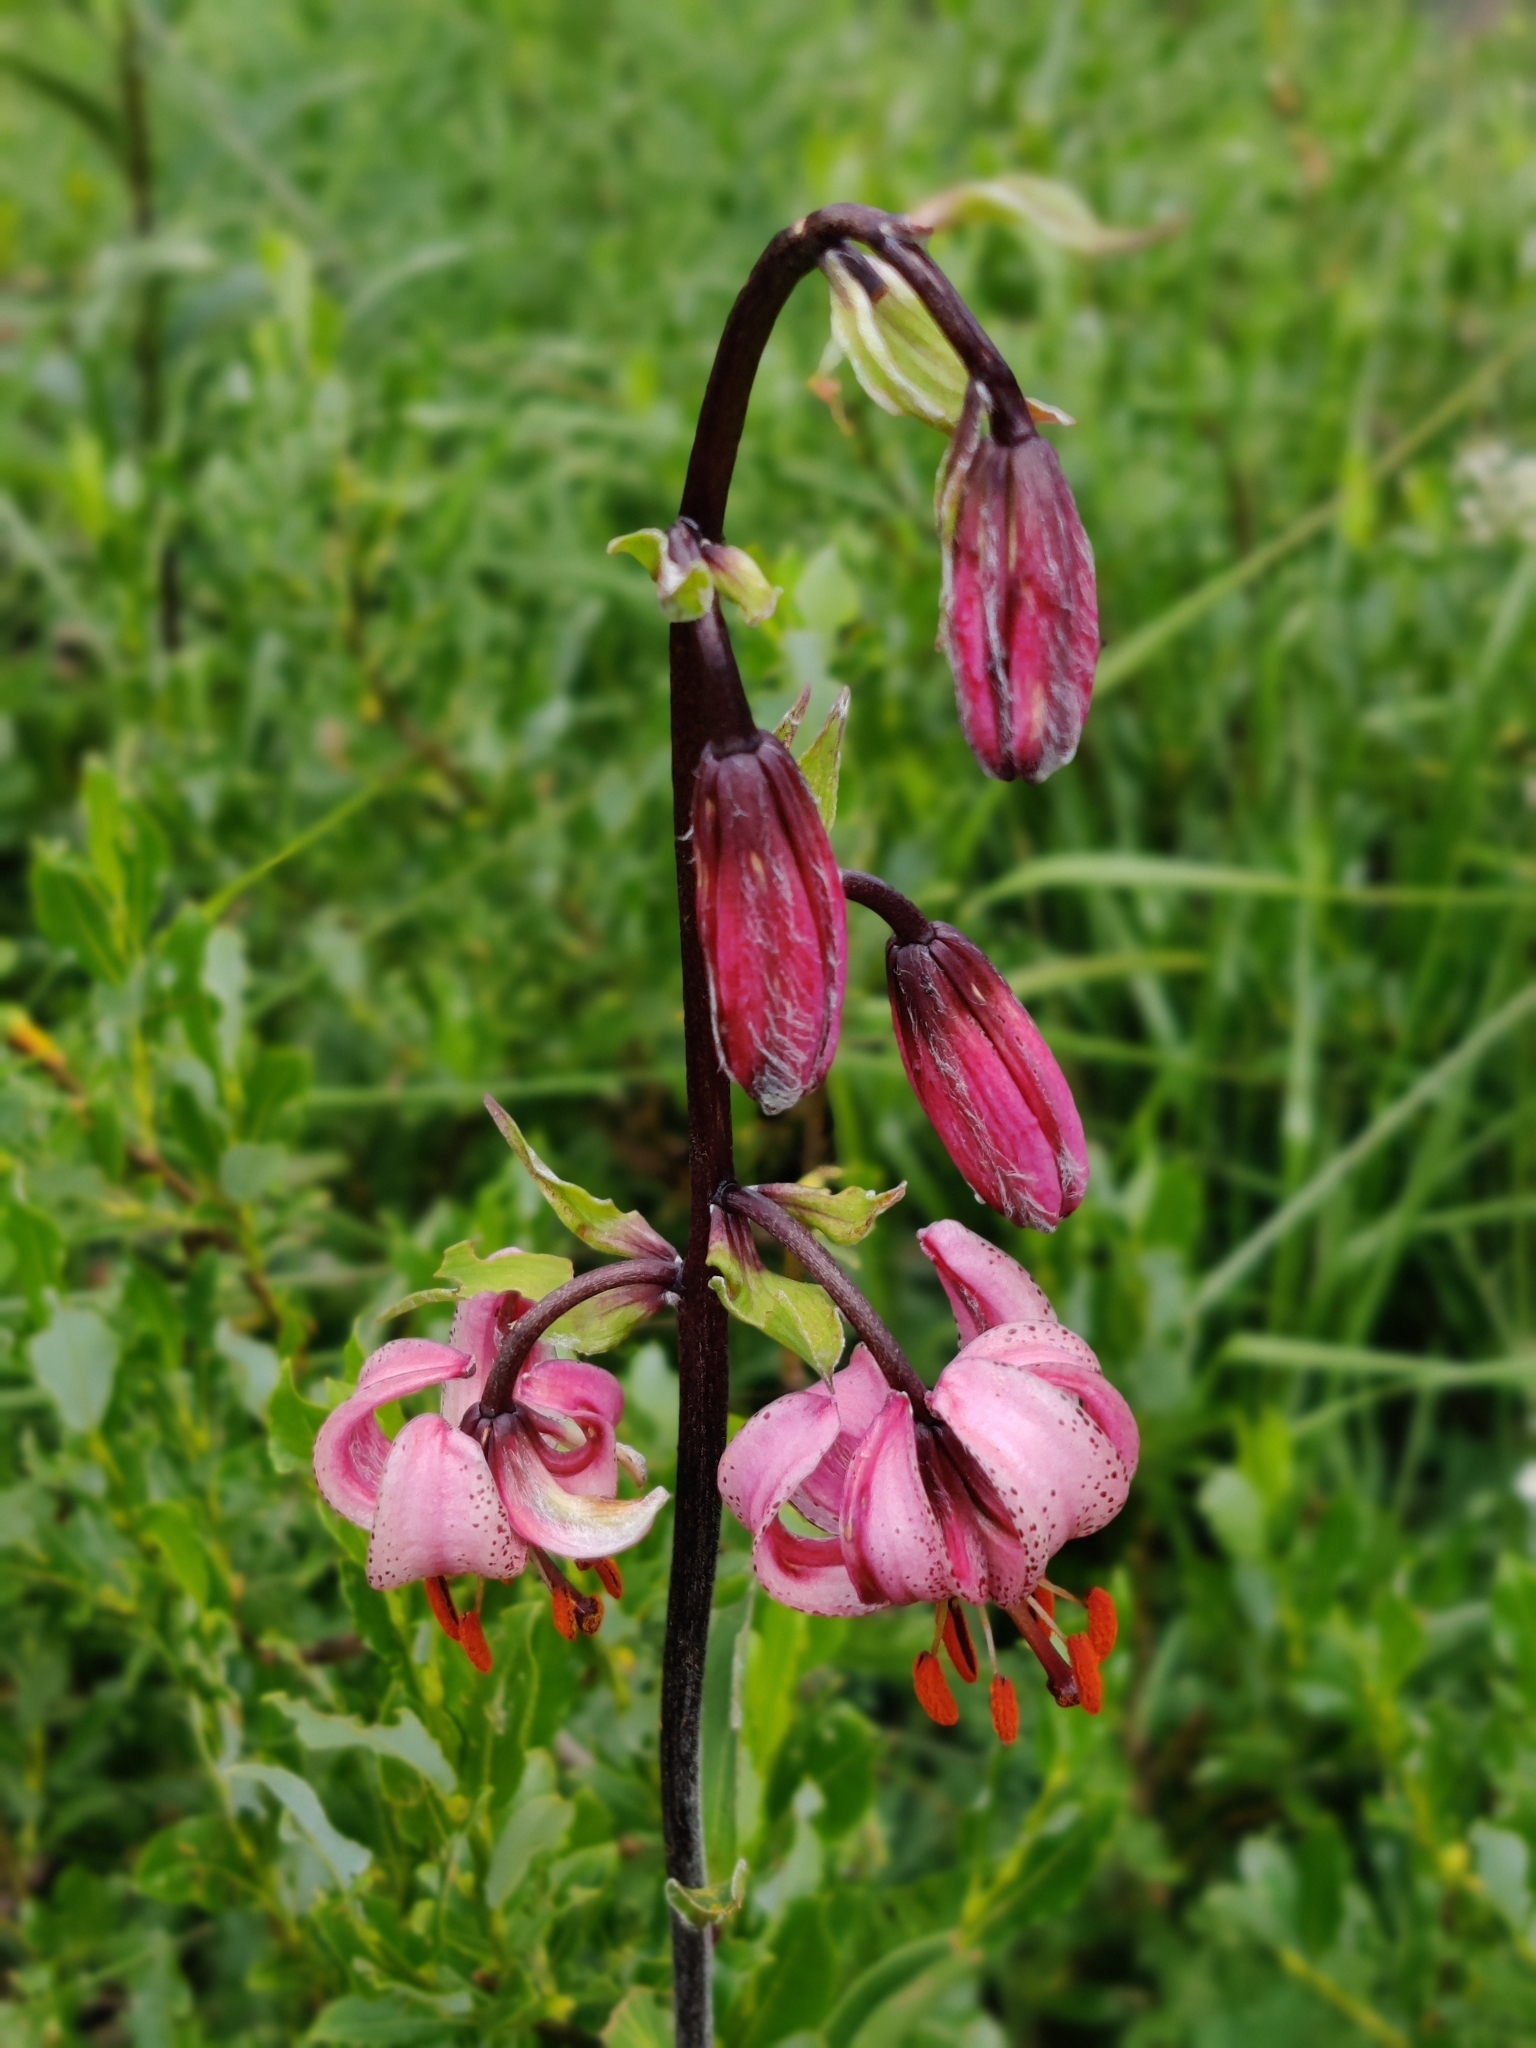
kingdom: Plantae
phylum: Tracheophyta
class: Liliopsida
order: Liliales
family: Liliaceae
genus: Lilium
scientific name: Lilium martagon
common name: Martagon lily
